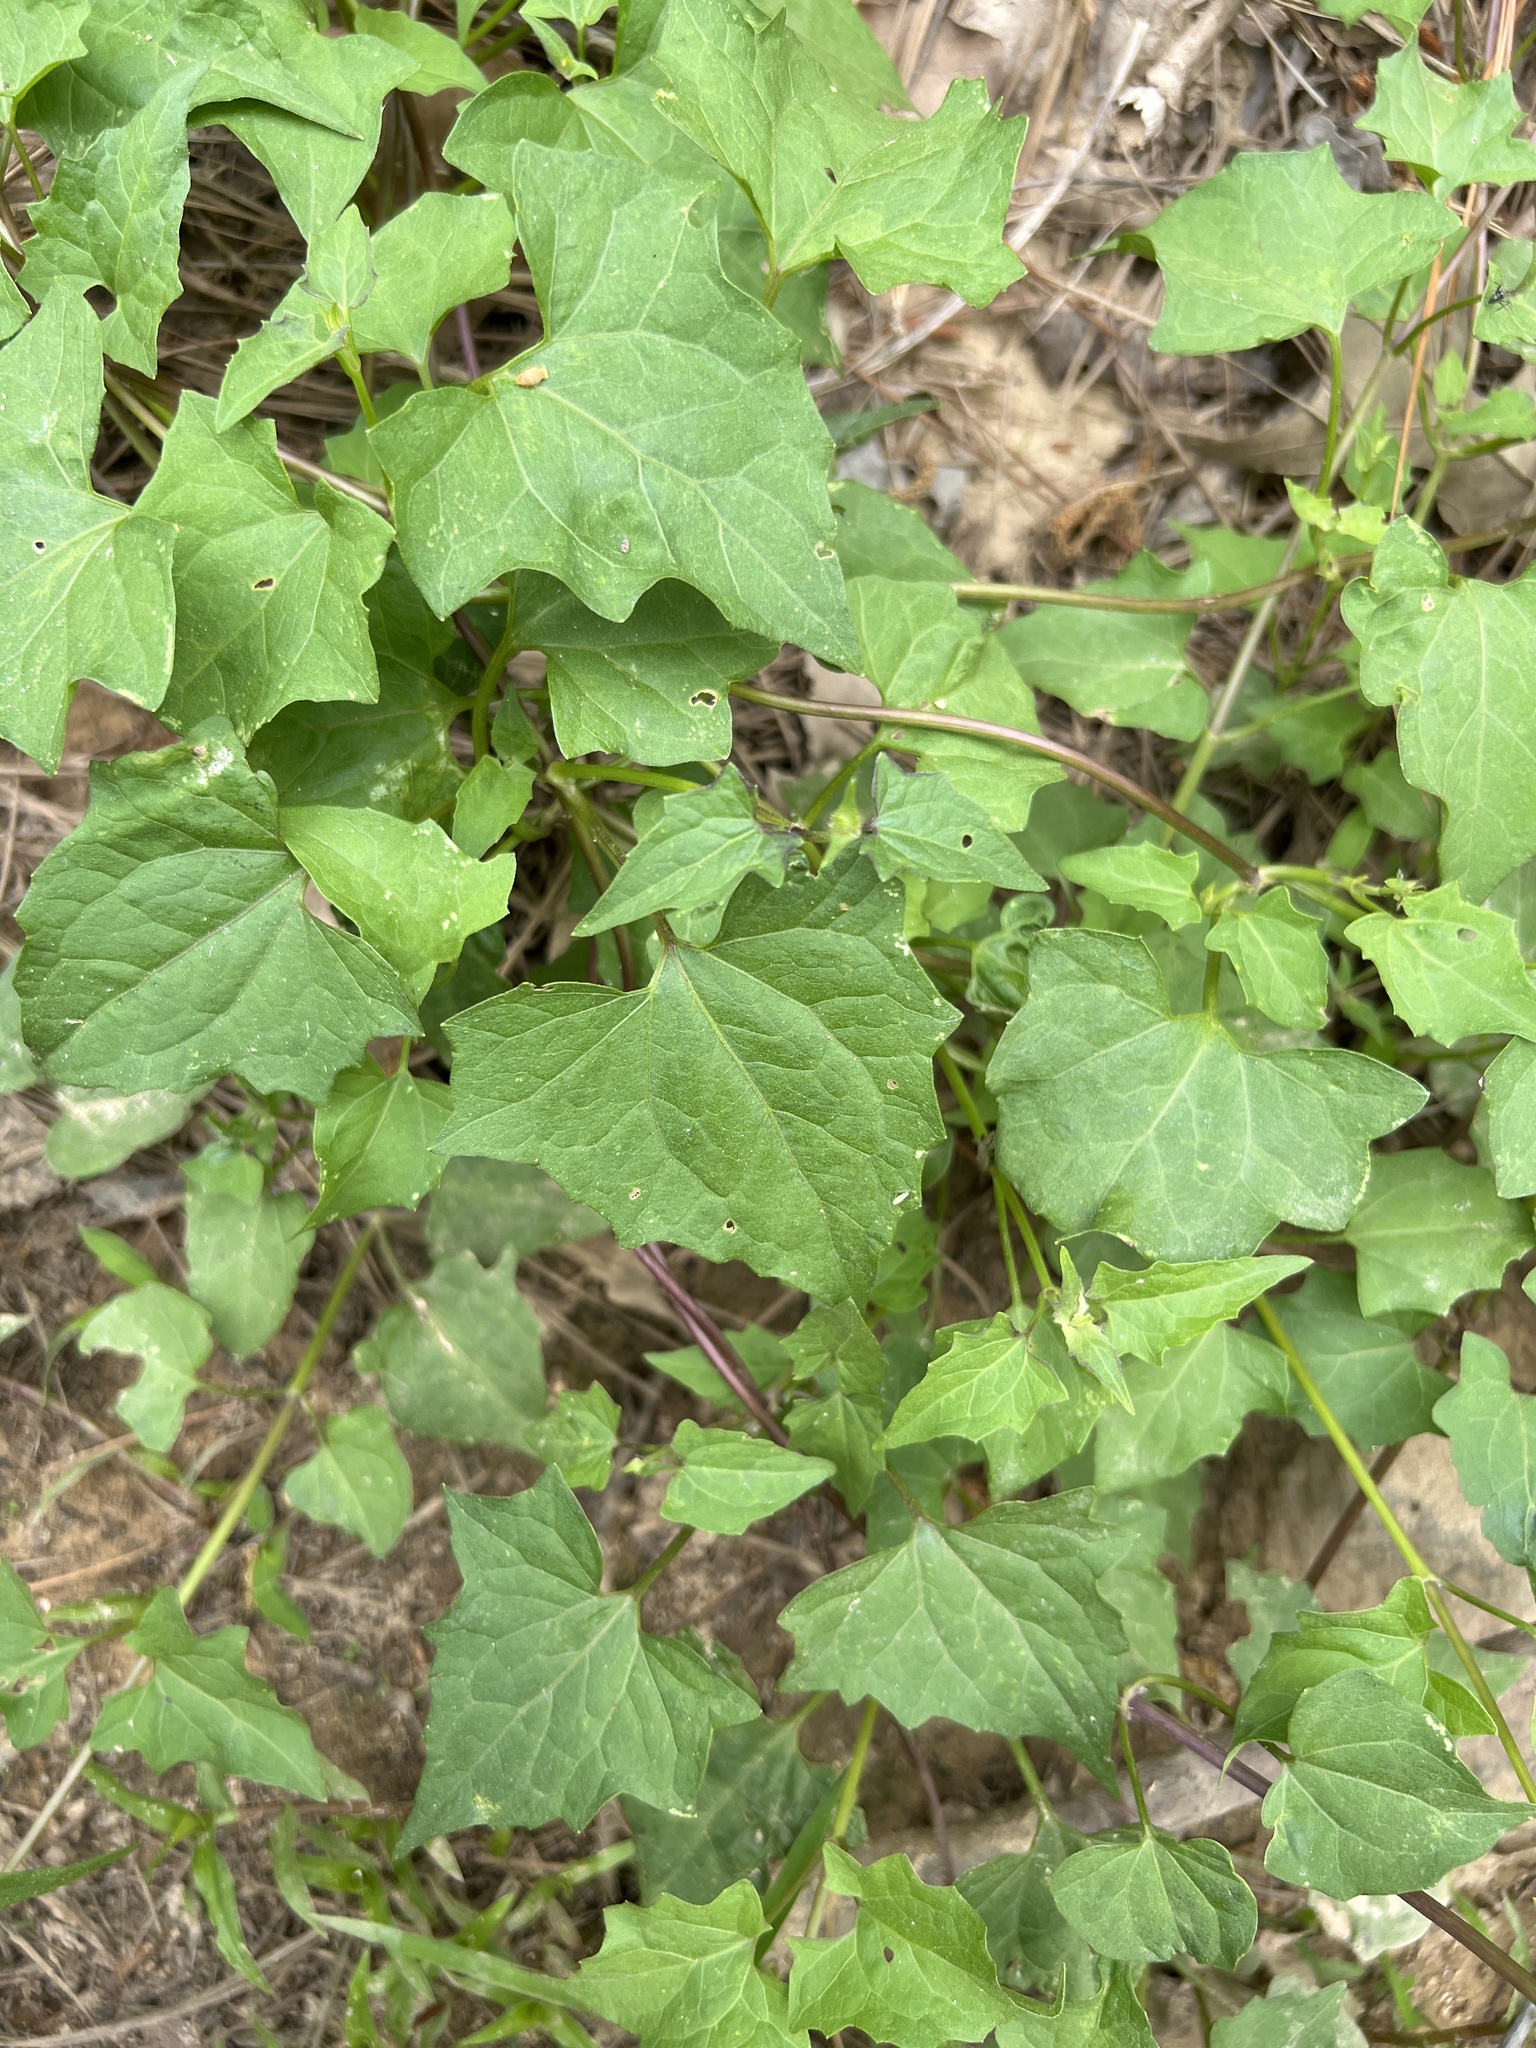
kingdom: Plantae
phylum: Tracheophyta
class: Magnoliopsida
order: Asterales
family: Asteraceae
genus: Mikania
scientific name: Mikania scandens
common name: Climbing hempvine
